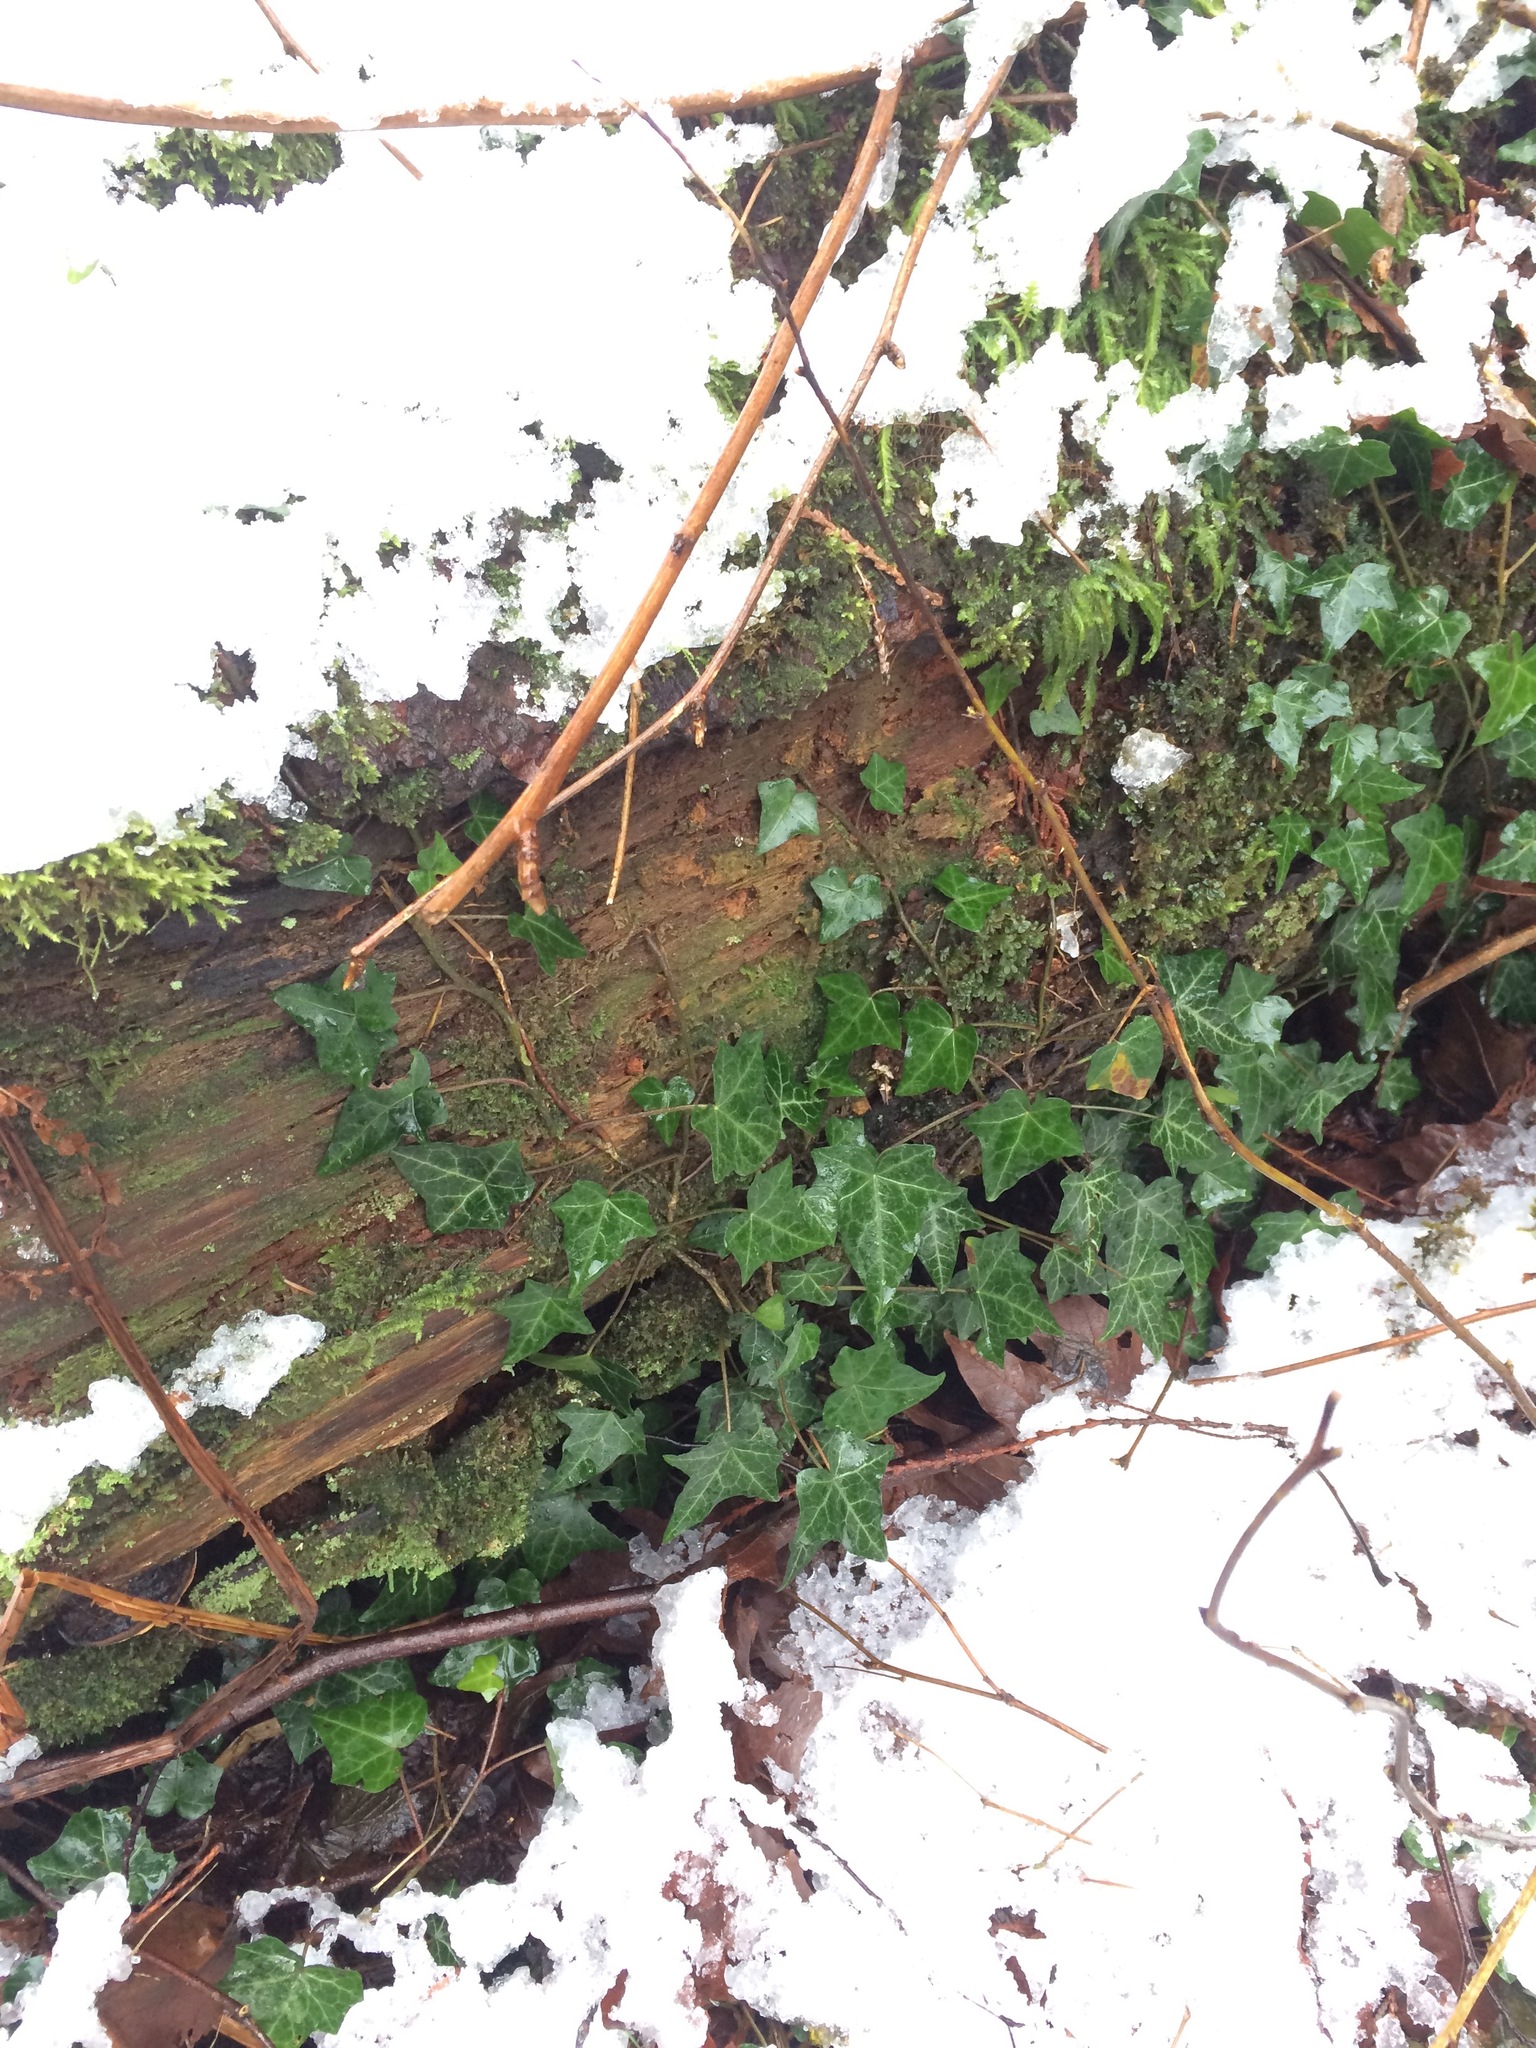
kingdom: Plantae
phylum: Tracheophyta
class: Magnoliopsida
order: Apiales
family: Araliaceae
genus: Hedera
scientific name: Hedera helix
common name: Ivy
